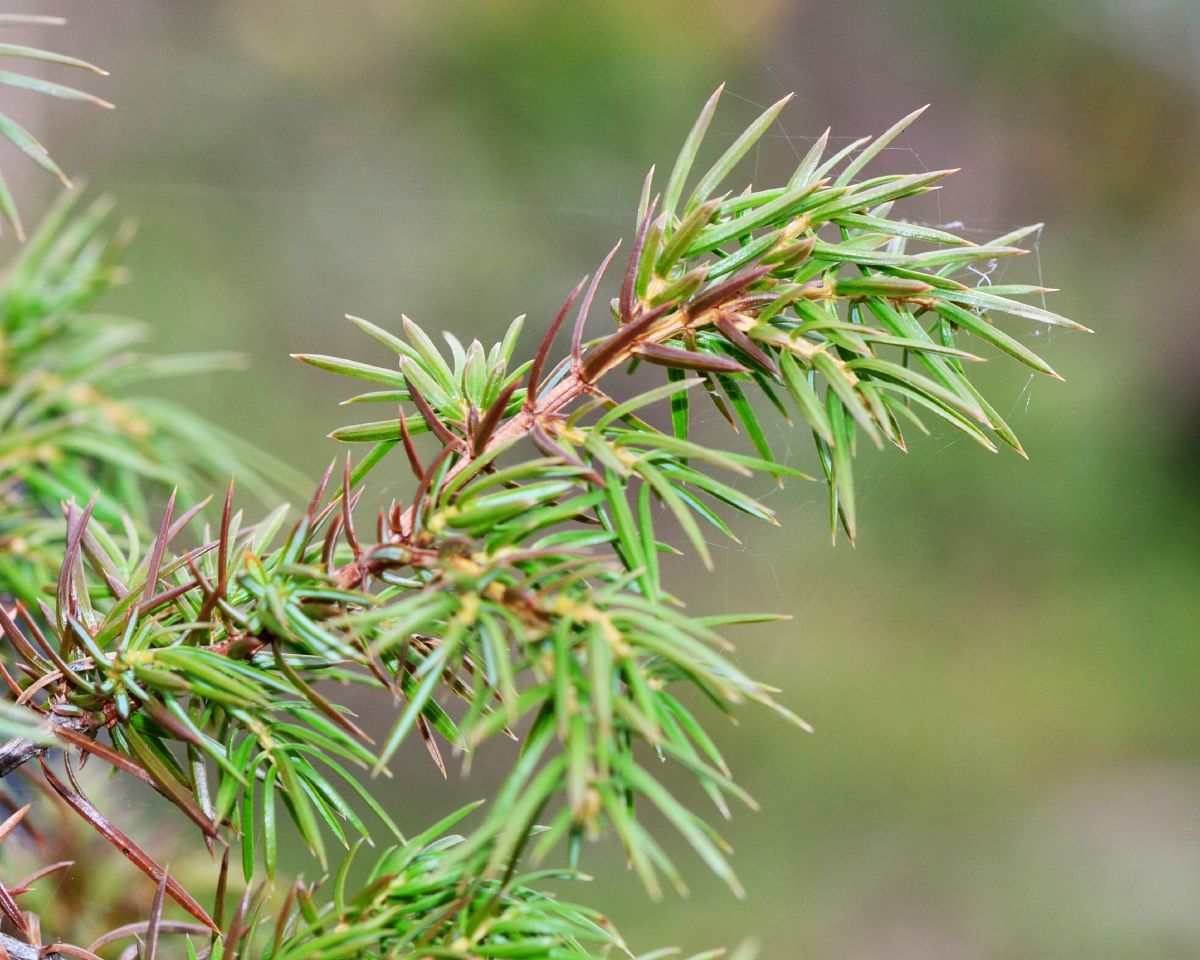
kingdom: Plantae
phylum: Tracheophyta
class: Pinopsida
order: Pinales
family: Cupressaceae
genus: Juniperus
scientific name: Juniperus communis
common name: Common juniper
